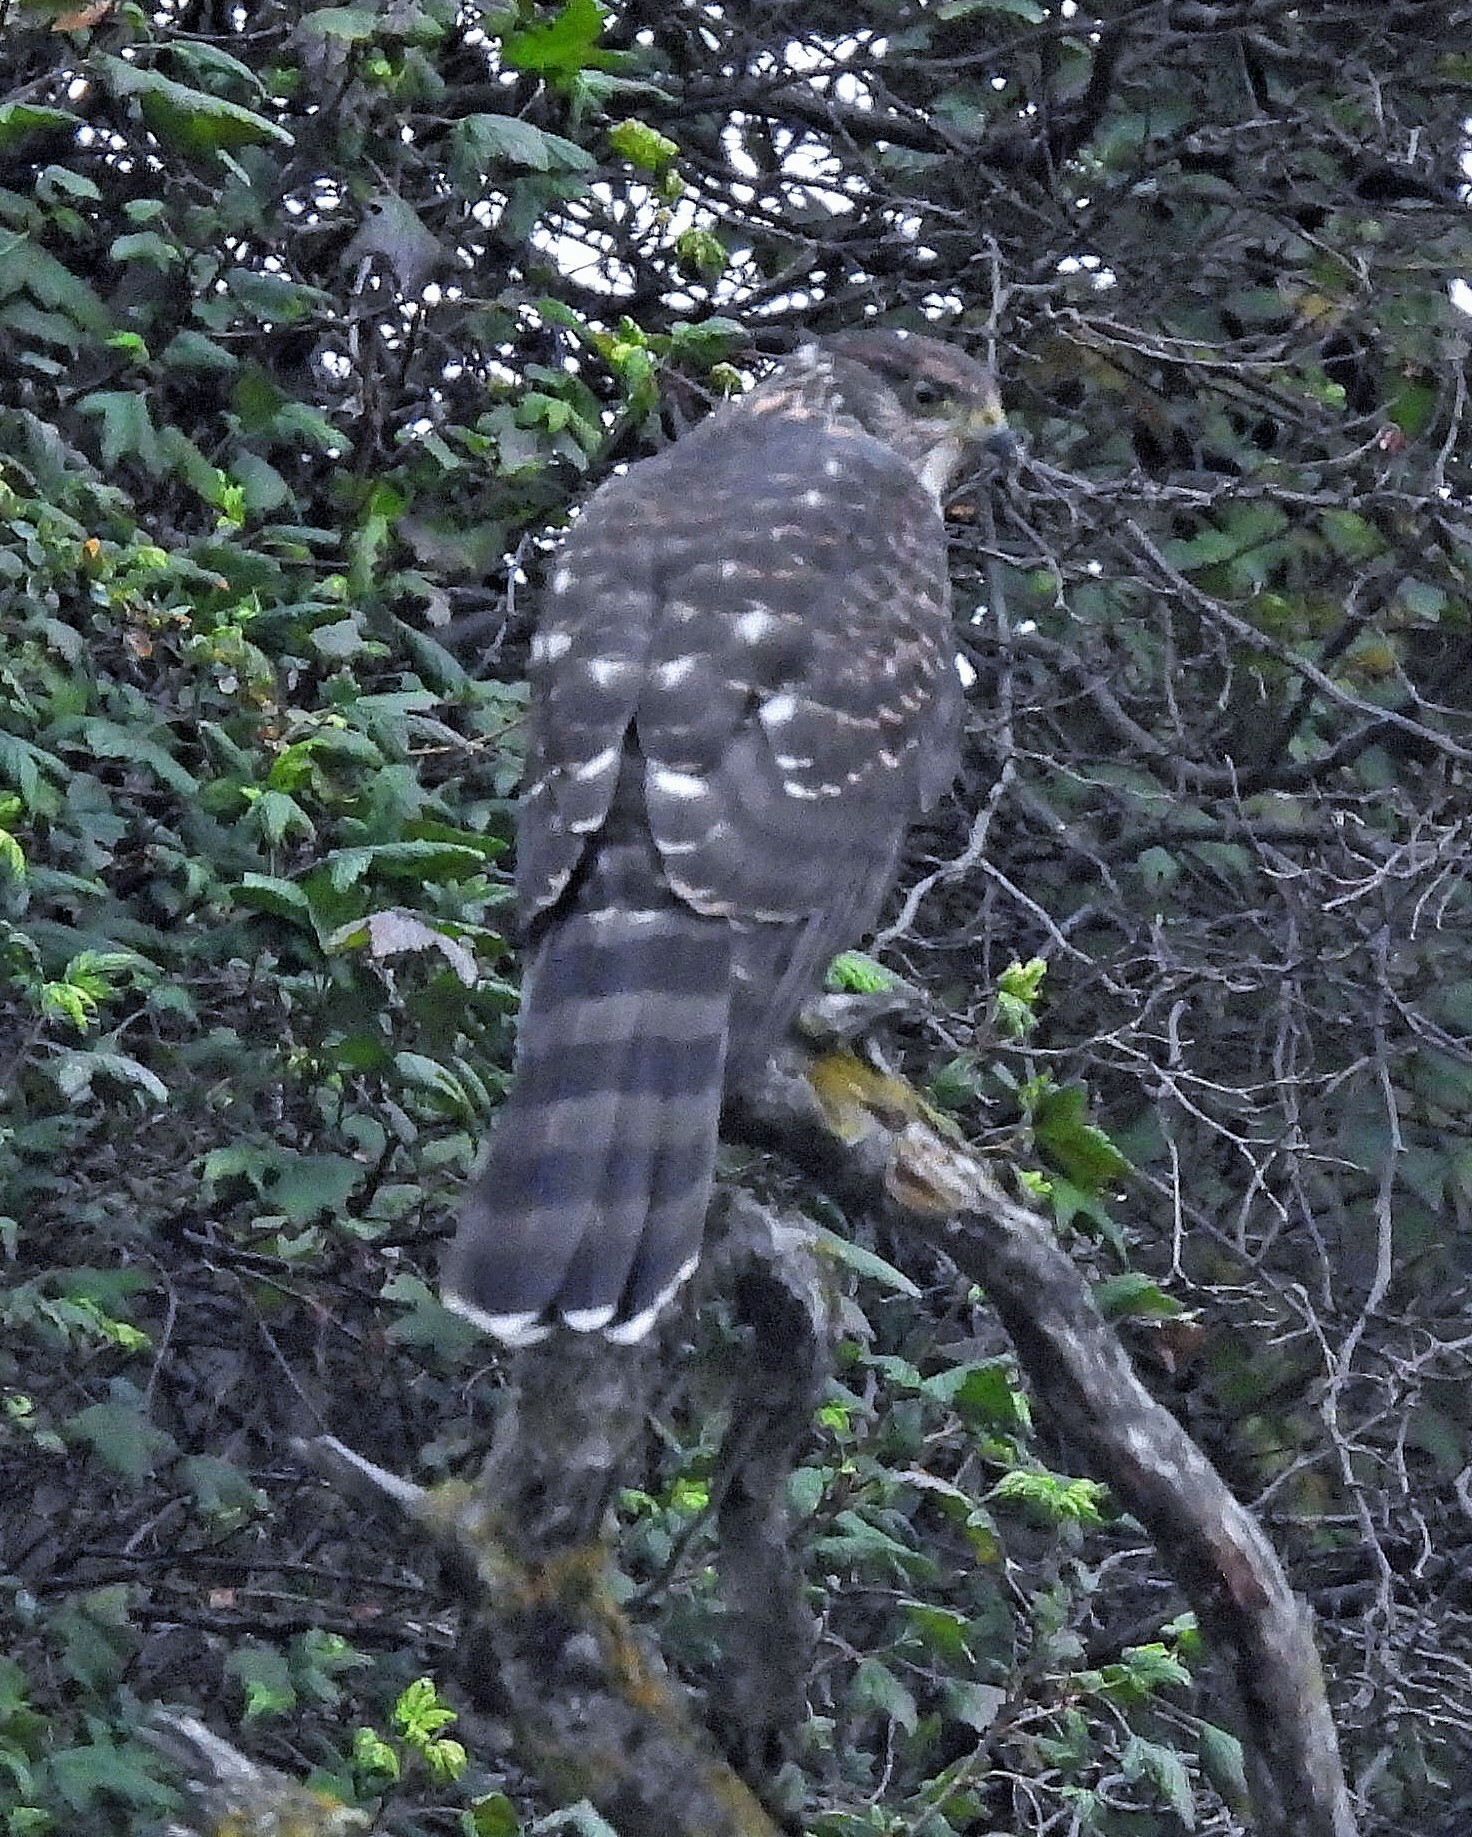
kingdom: Animalia
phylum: Chordata
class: Aves
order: Accipitriformes
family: Accipitridae
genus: Accipiter
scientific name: Accipiter chilensis
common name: Chilean hawk
